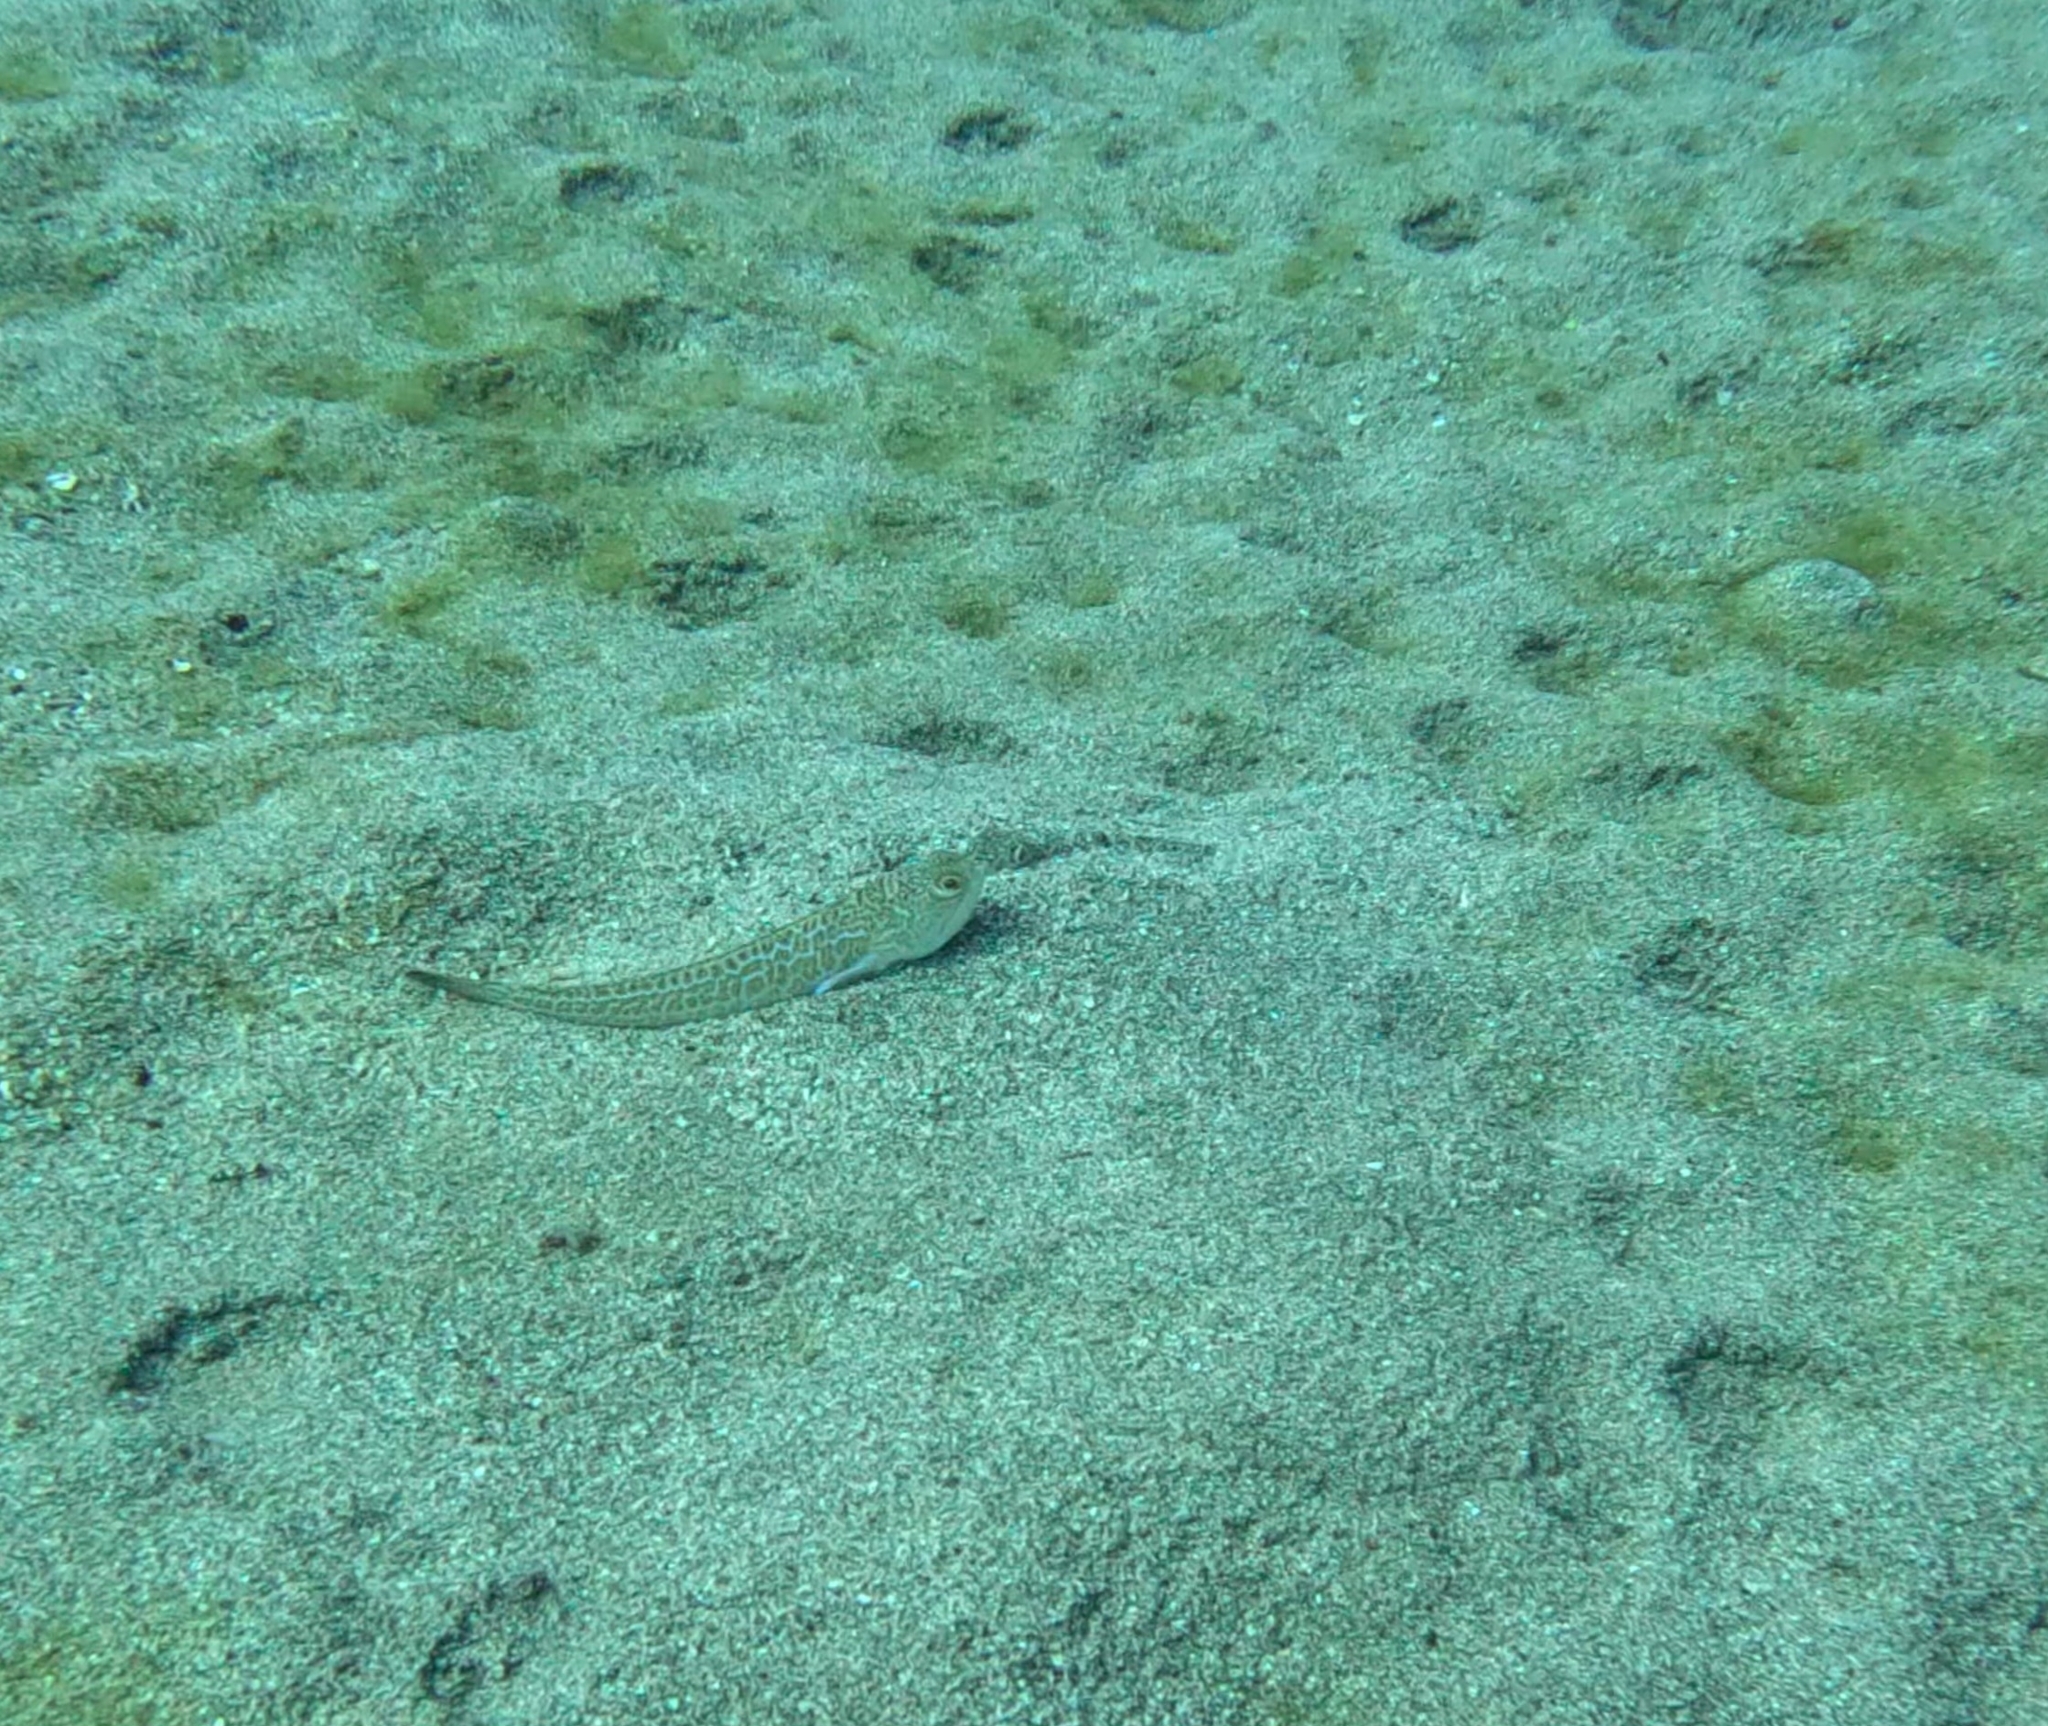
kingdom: Animalia
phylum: Chordata
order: Perciformes
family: Trachinidae
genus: Trachinus
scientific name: Trachinus draco
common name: Greater weever
